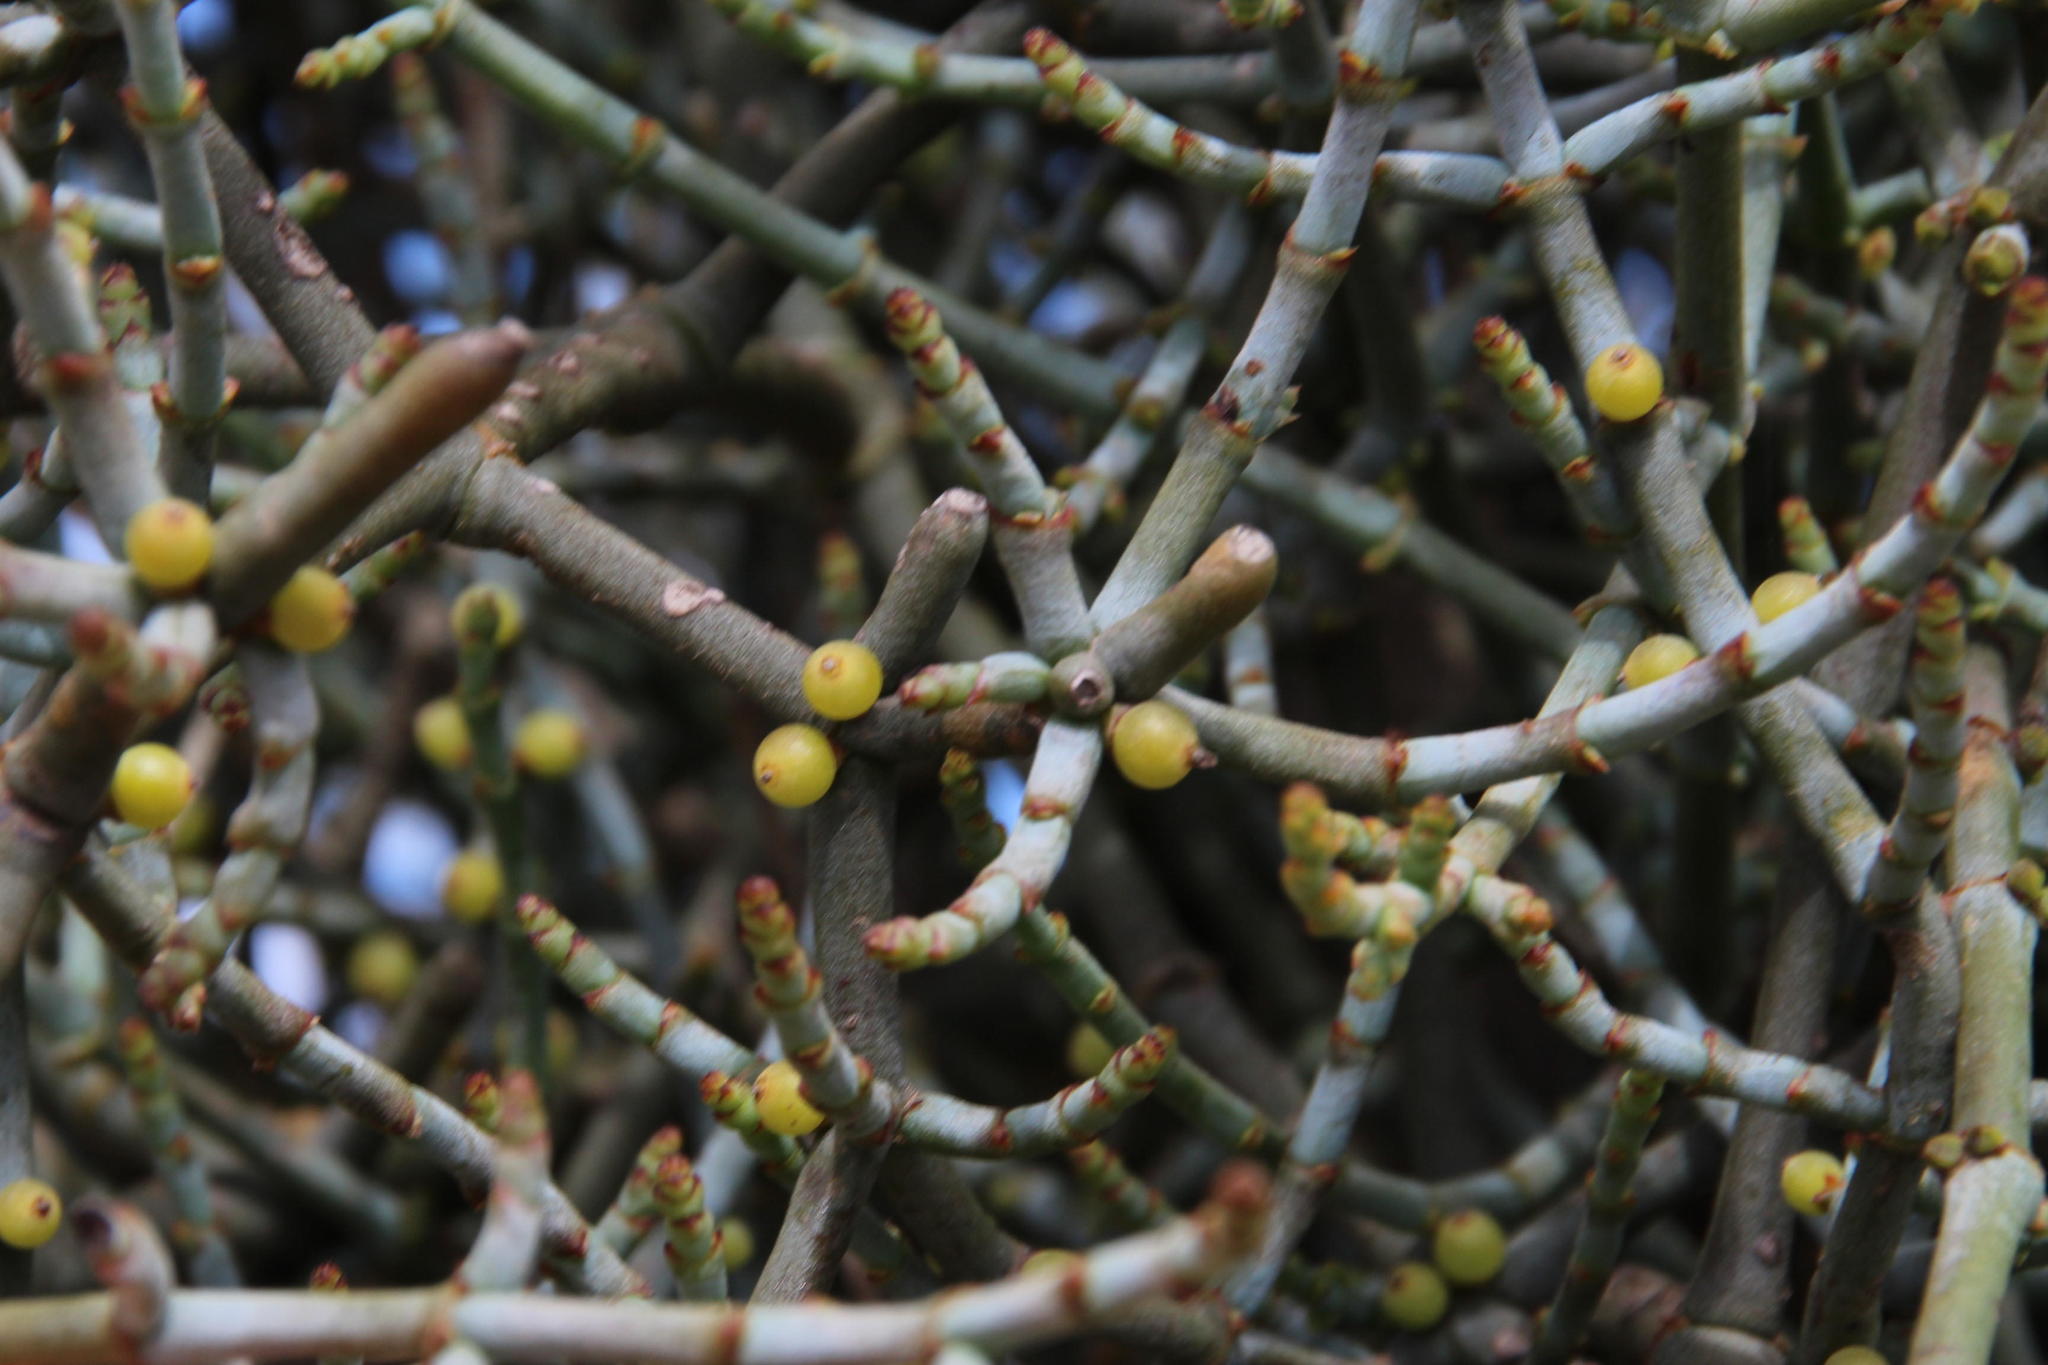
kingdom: Plantae
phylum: Tracheophyta
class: Magnoliopsida
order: Santalales
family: Viscaceae
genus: Viscum
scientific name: Viscum capense
